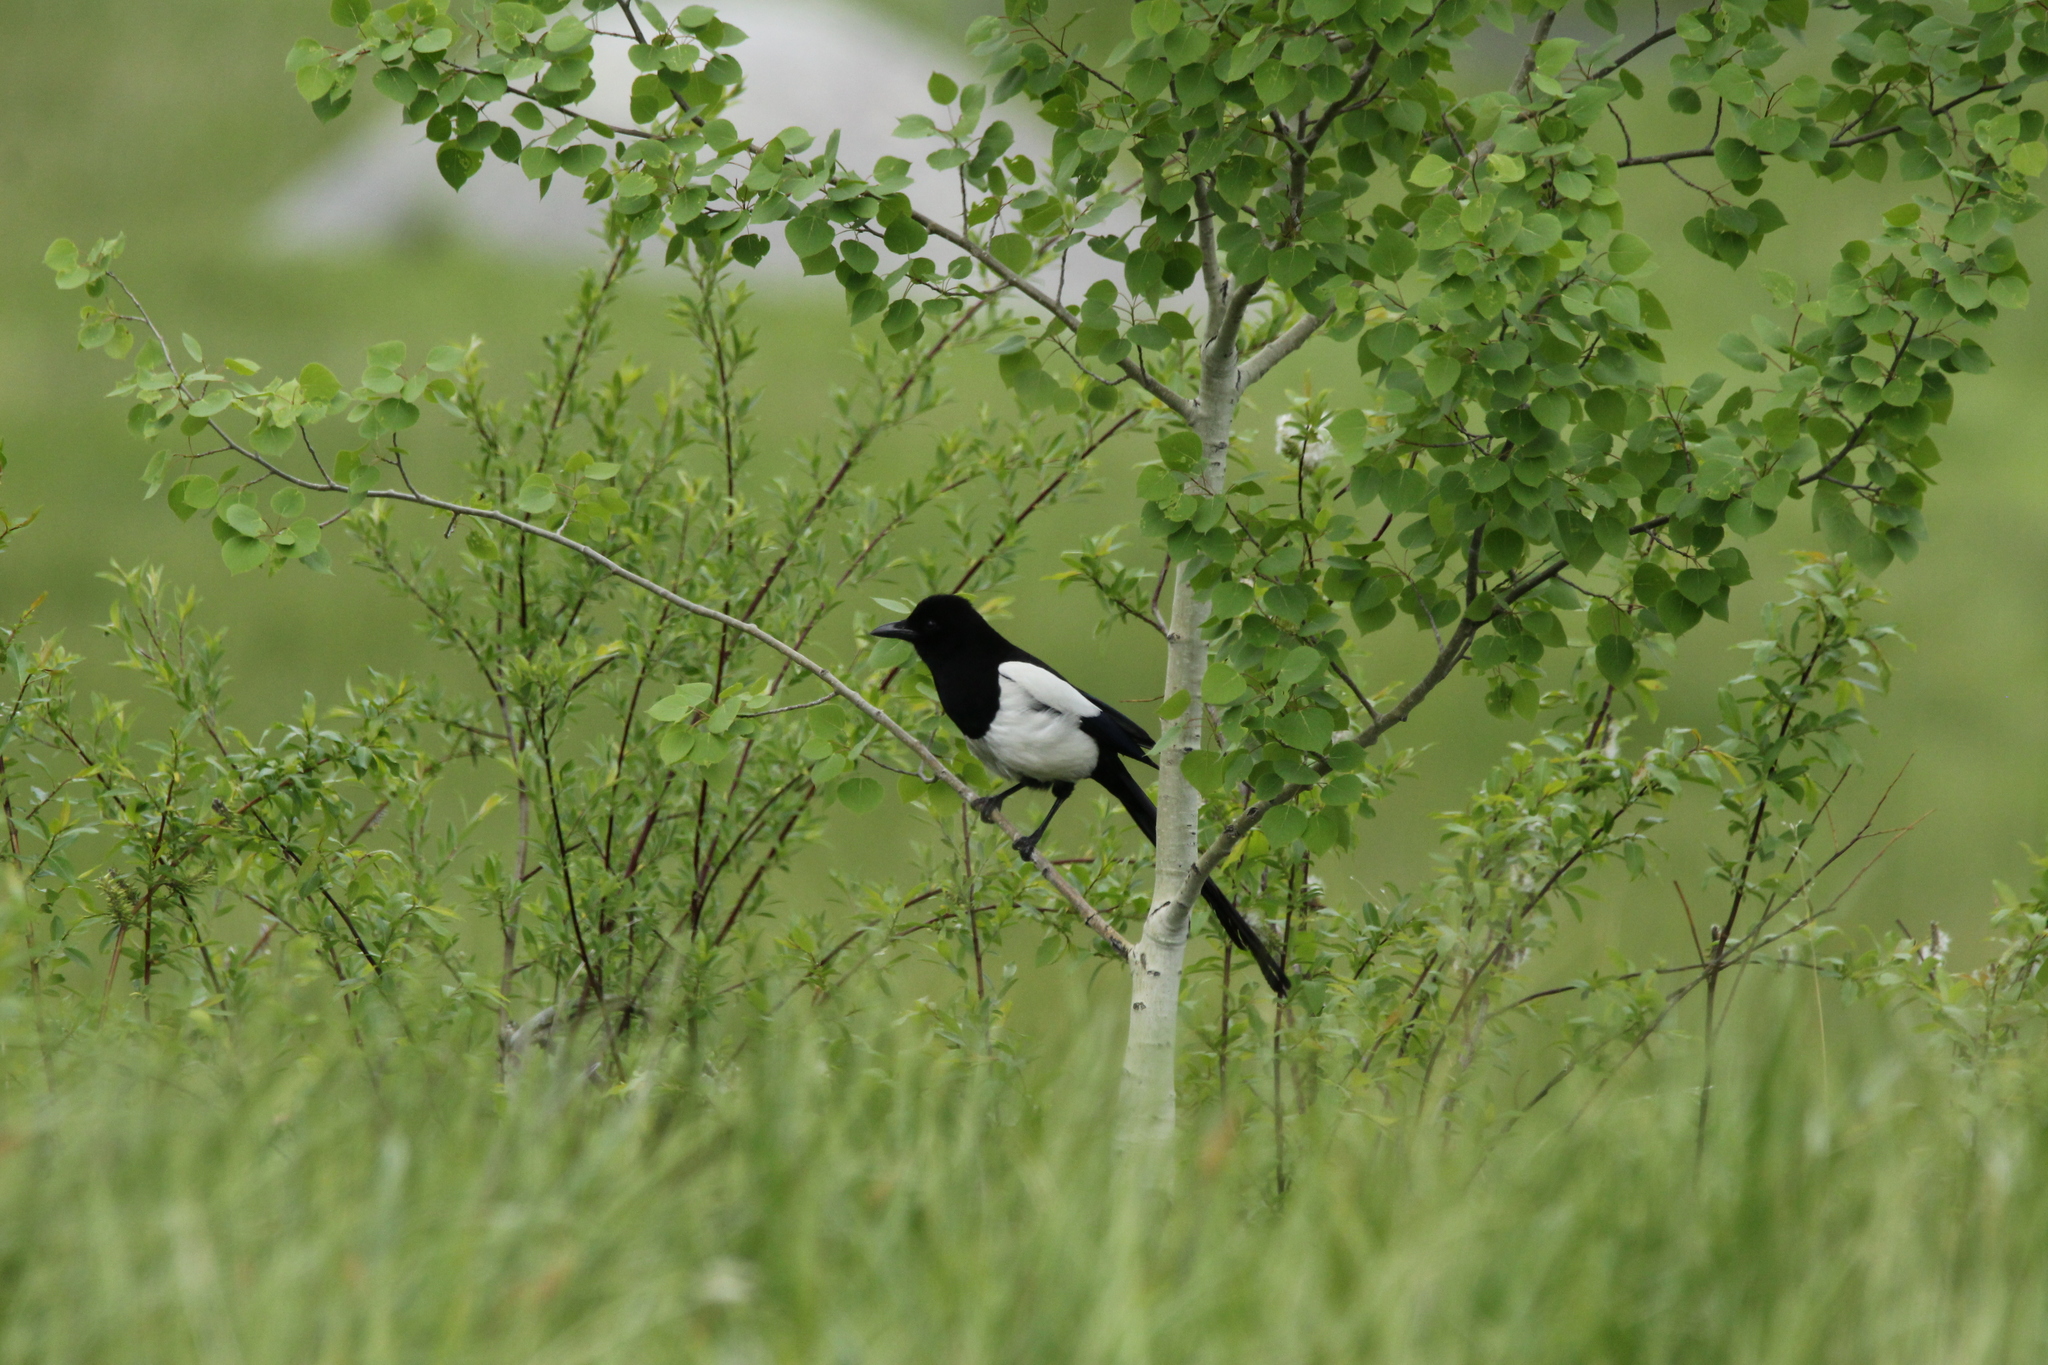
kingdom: Animalia
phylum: Chordata
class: Aves
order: Passeriformes
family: Corvidae
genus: Pica
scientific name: Pica hudsonia
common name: Black-billed magpie
